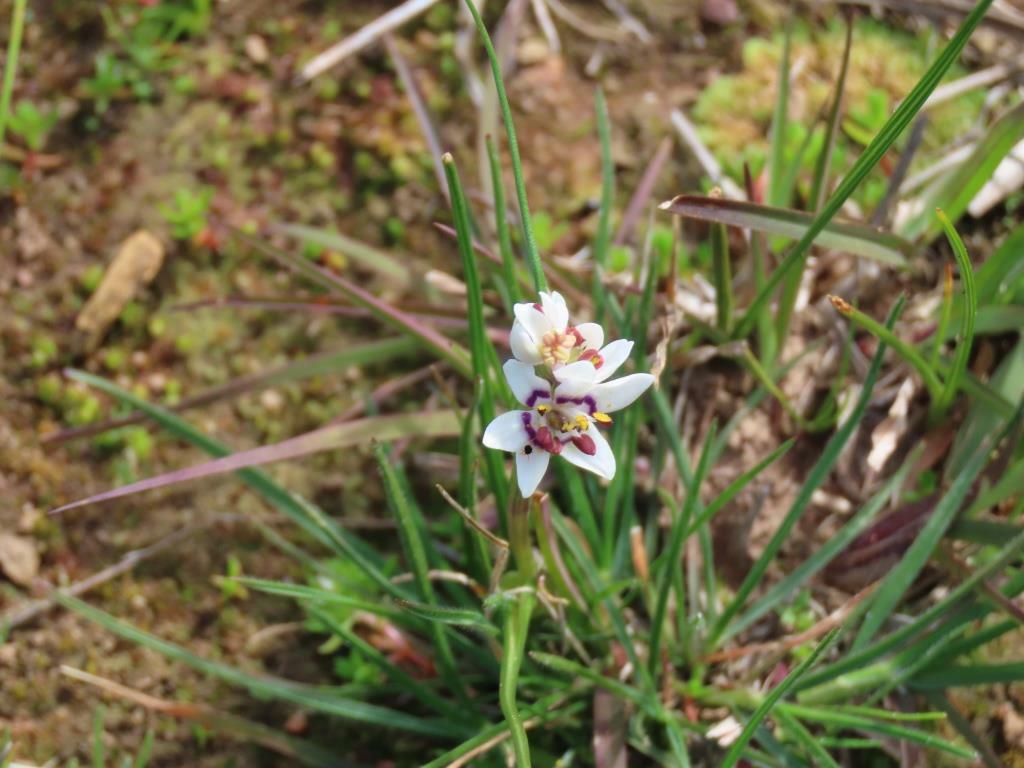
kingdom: Plantae
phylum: Tracheophyta
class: Liliopsida
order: Liliales
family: Colchicaceae
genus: Wurmbea
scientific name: Wurmbea dioica
